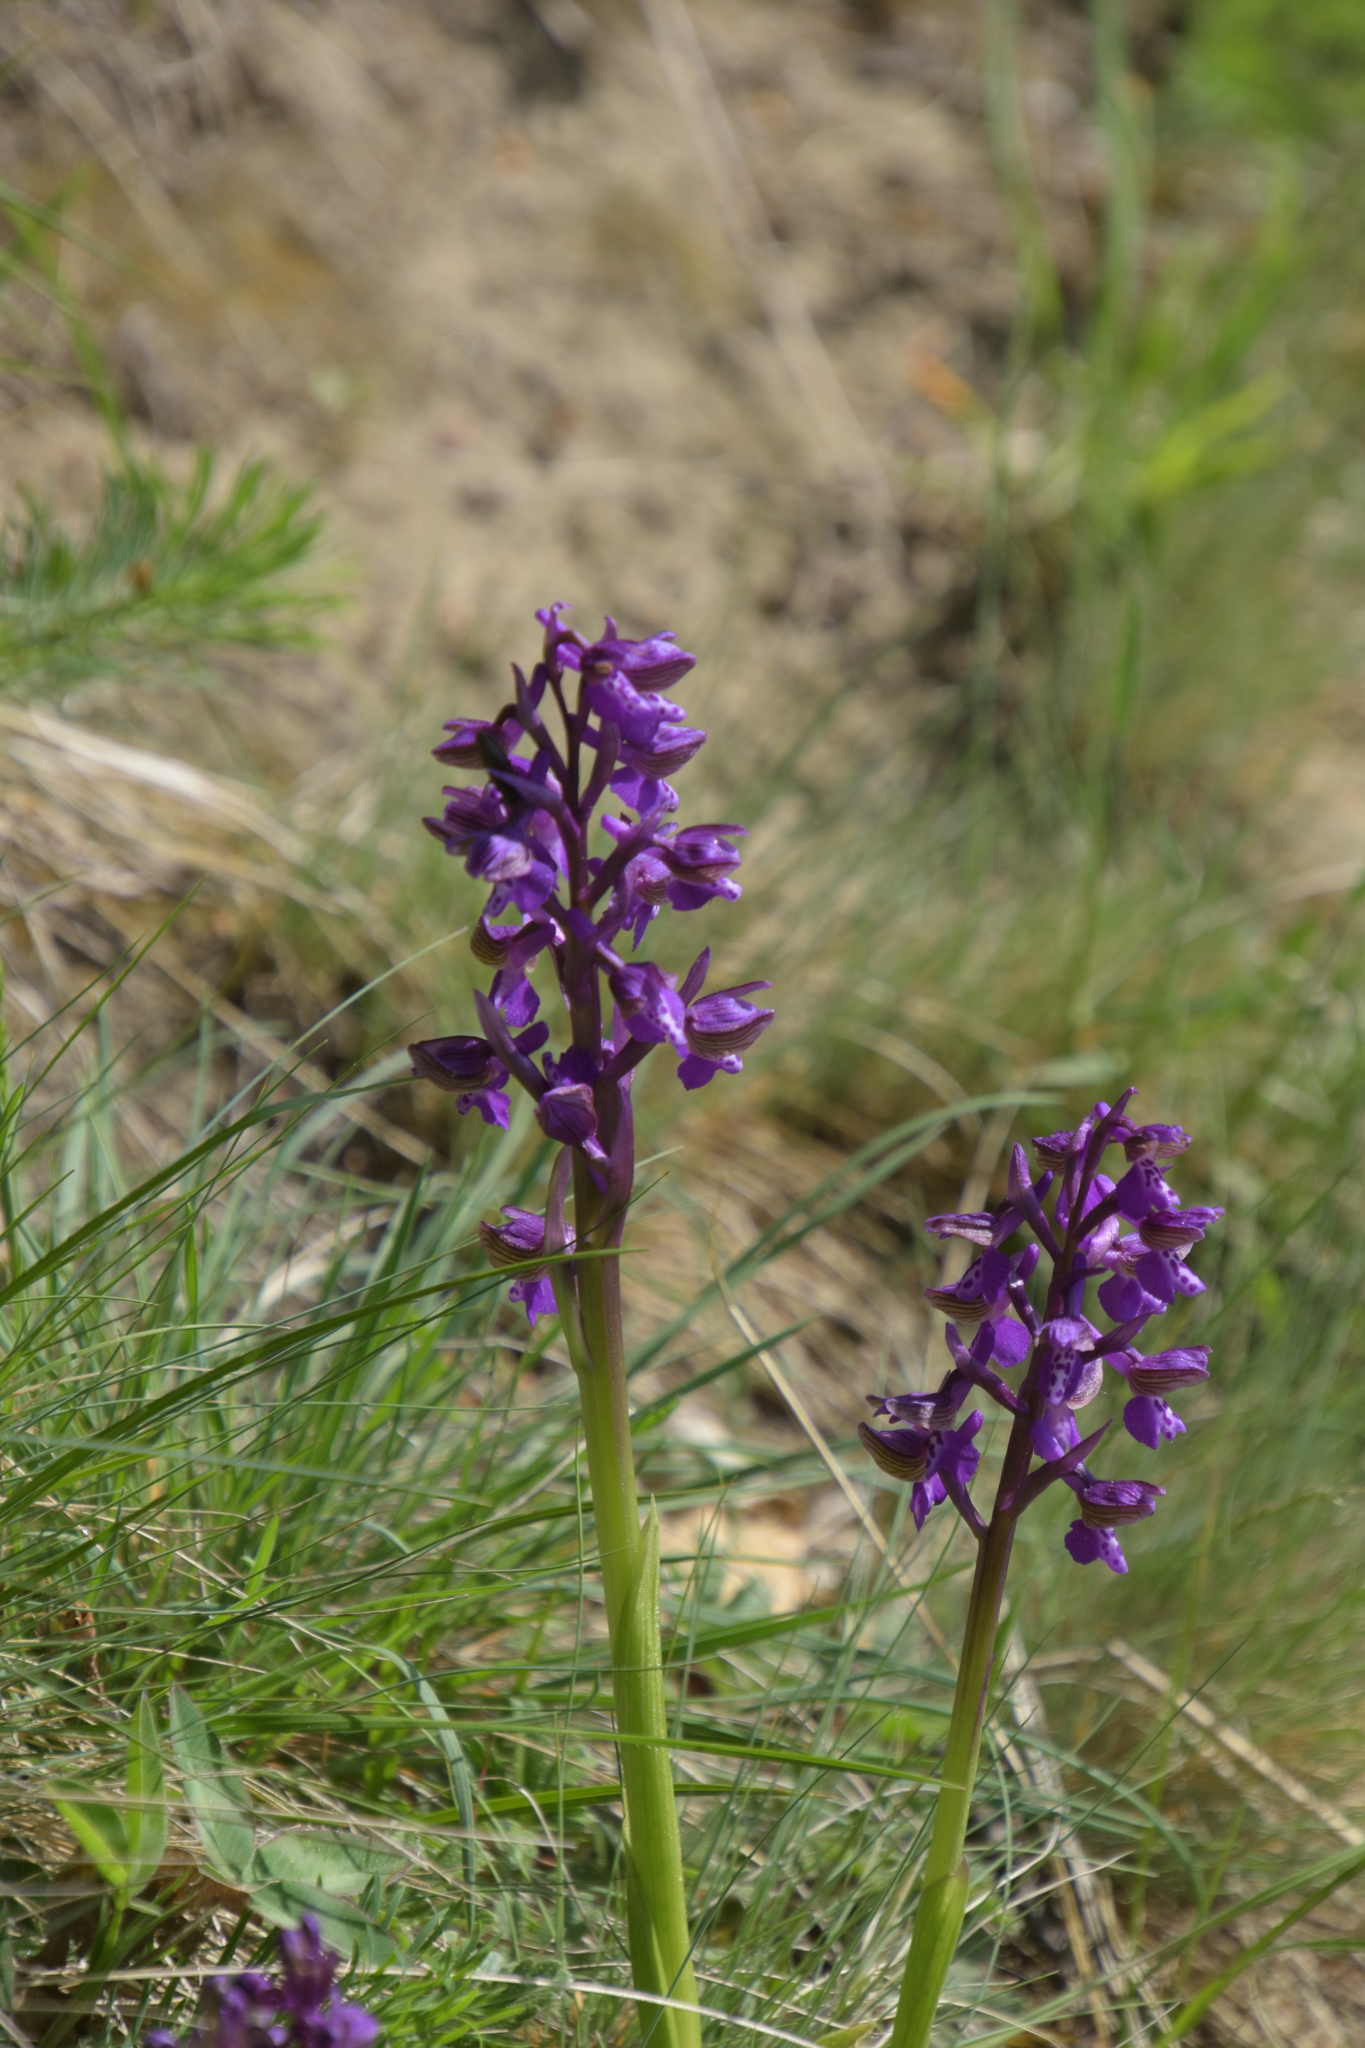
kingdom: Plantae
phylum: Tracheophyta
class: Liliopsida
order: Asparagales
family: Orchidaceae
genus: Anacamptis
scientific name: Anacamptis morio
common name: Green-winged orchid
